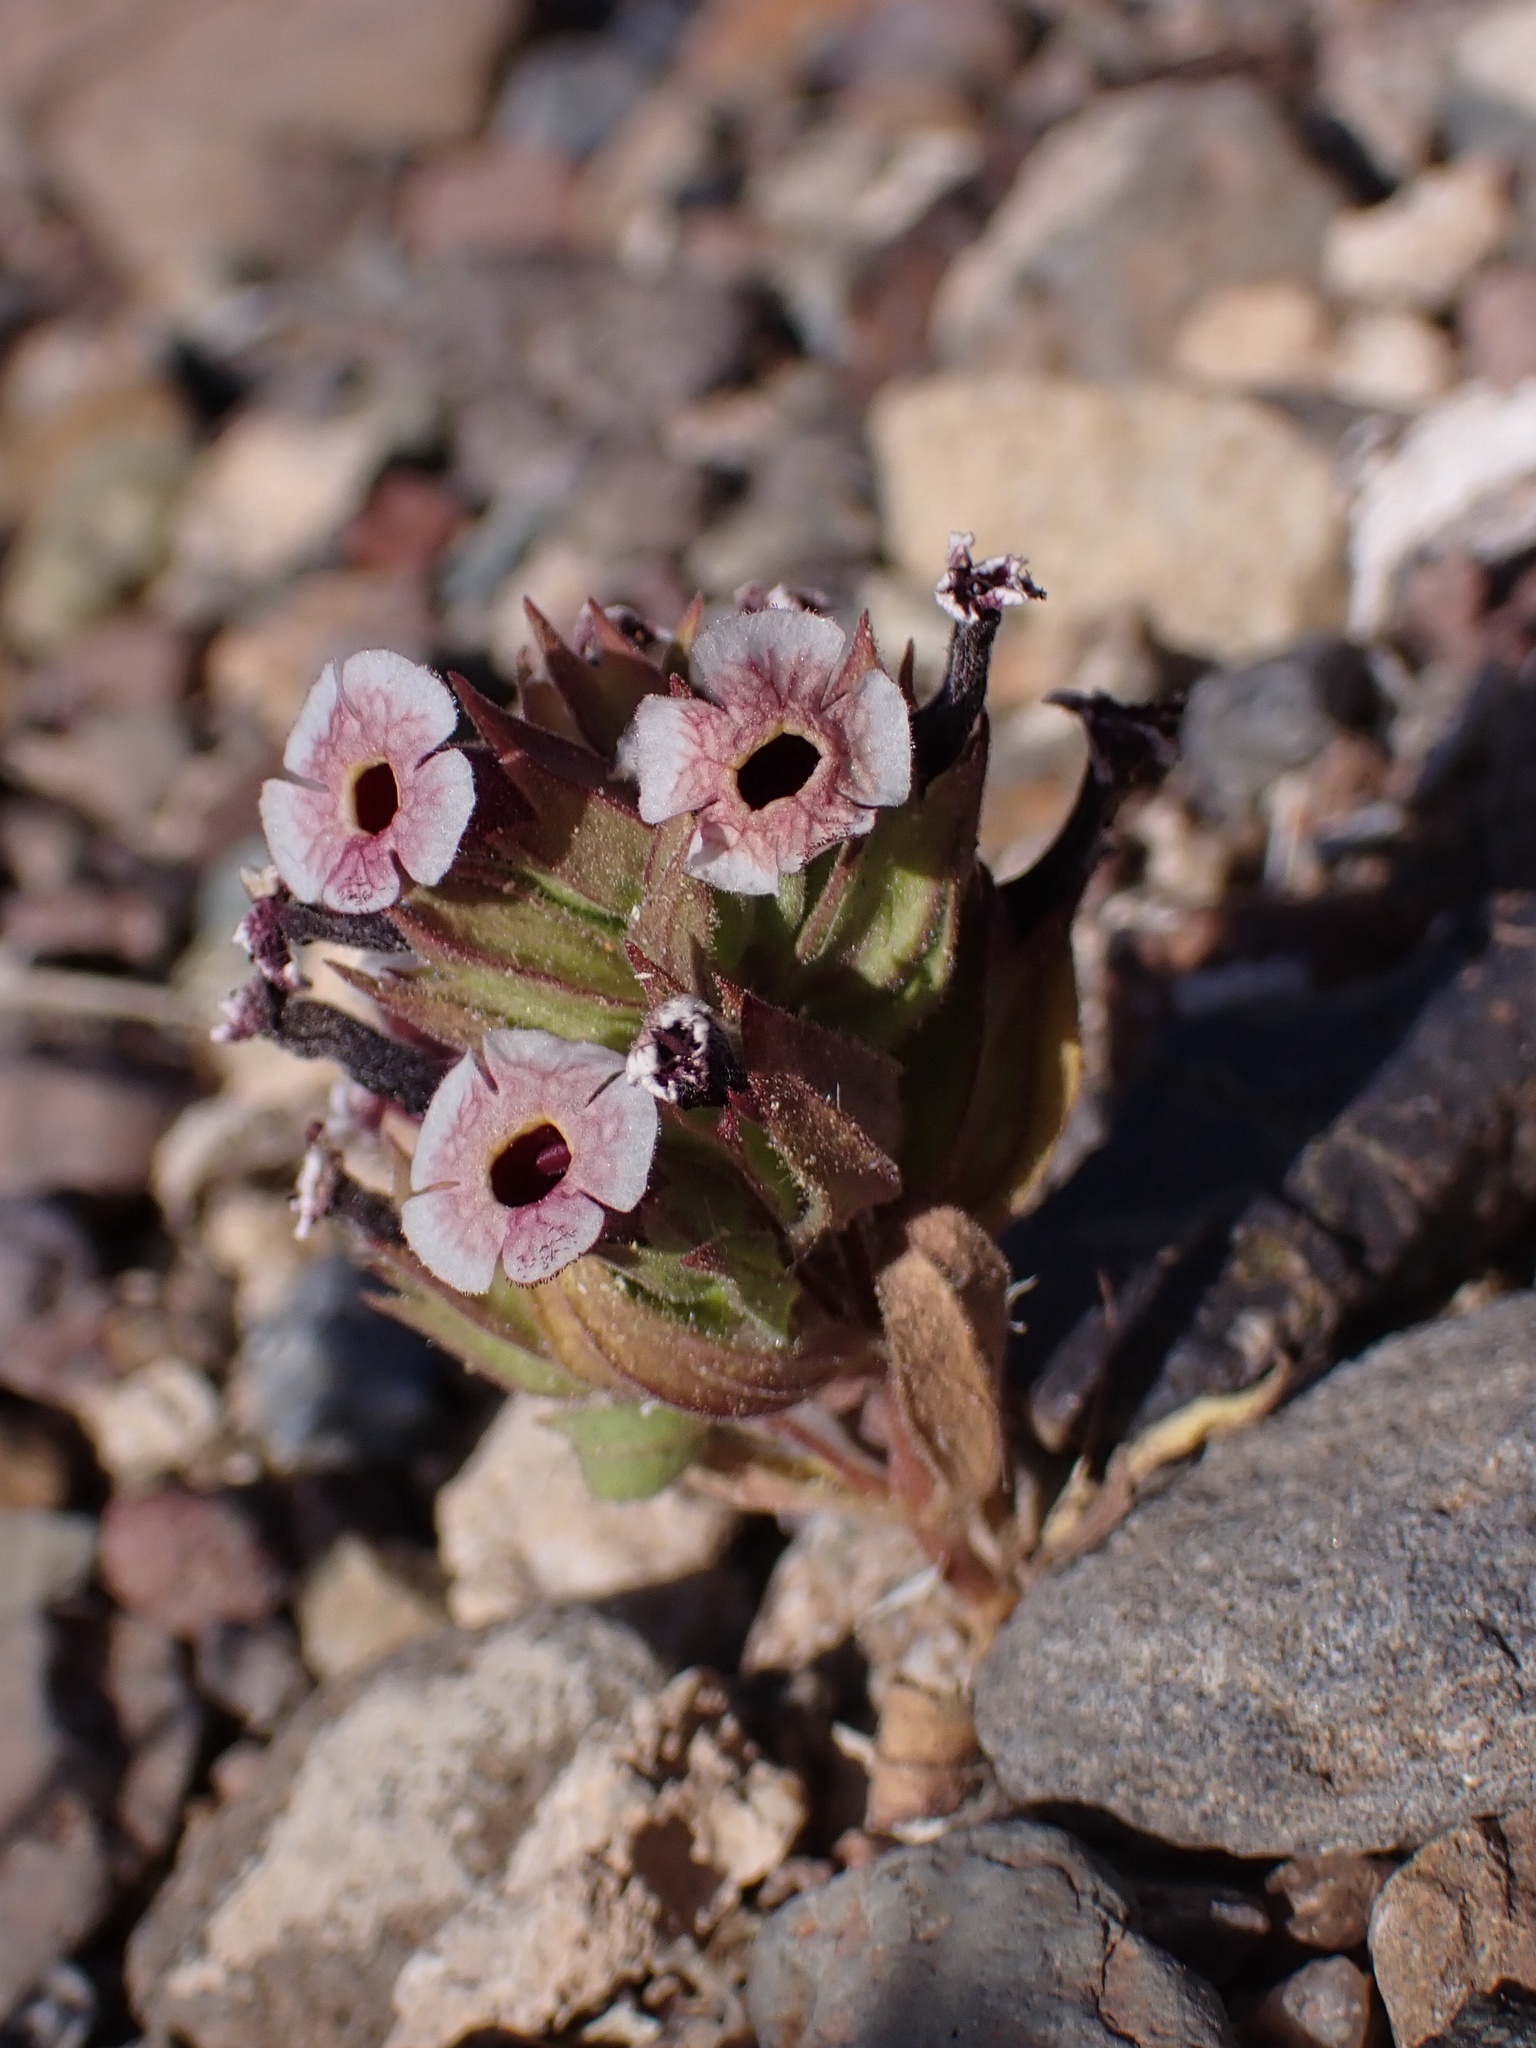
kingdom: Plantae
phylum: Tracheophyta
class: Magnoliopsida
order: Lamiales
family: Phrymaceae
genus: Diplacus
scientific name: Diplacus mohavensis
